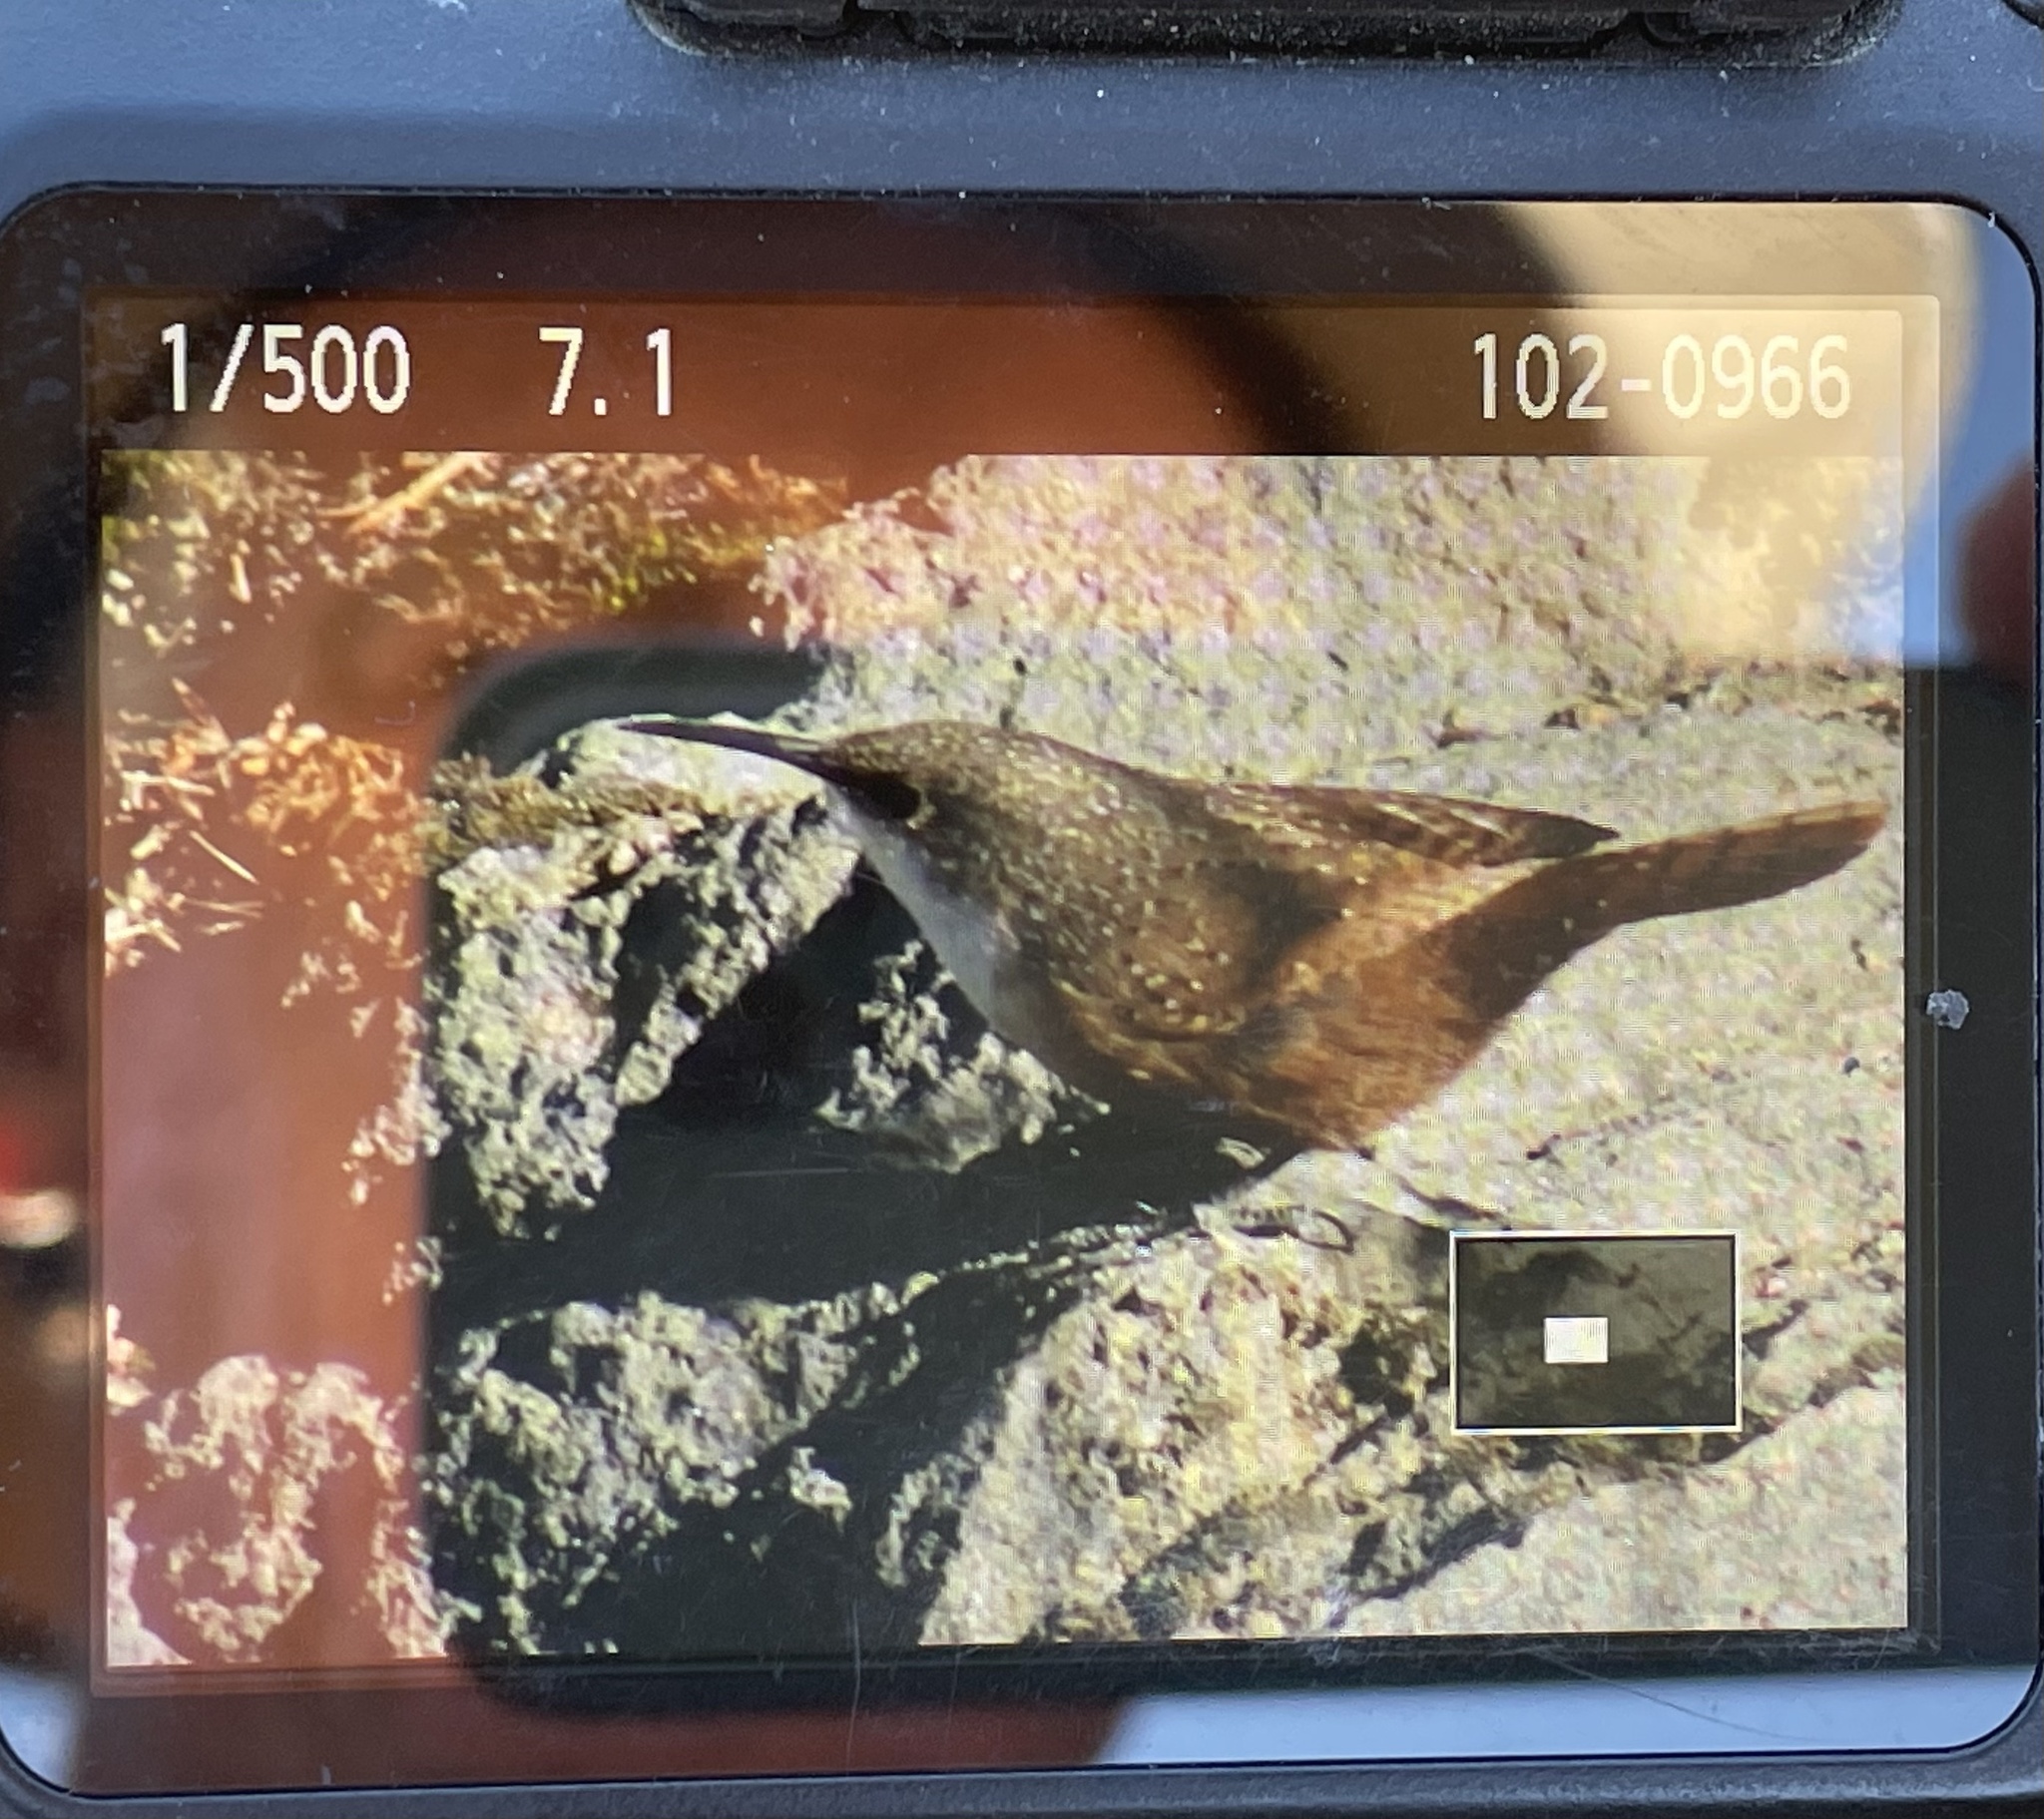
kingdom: Animalia
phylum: Chordata
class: Aves
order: Passeriformes
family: Troglodytidae
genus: Catherpes
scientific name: Catherpes mexicanus
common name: Canyon wren
